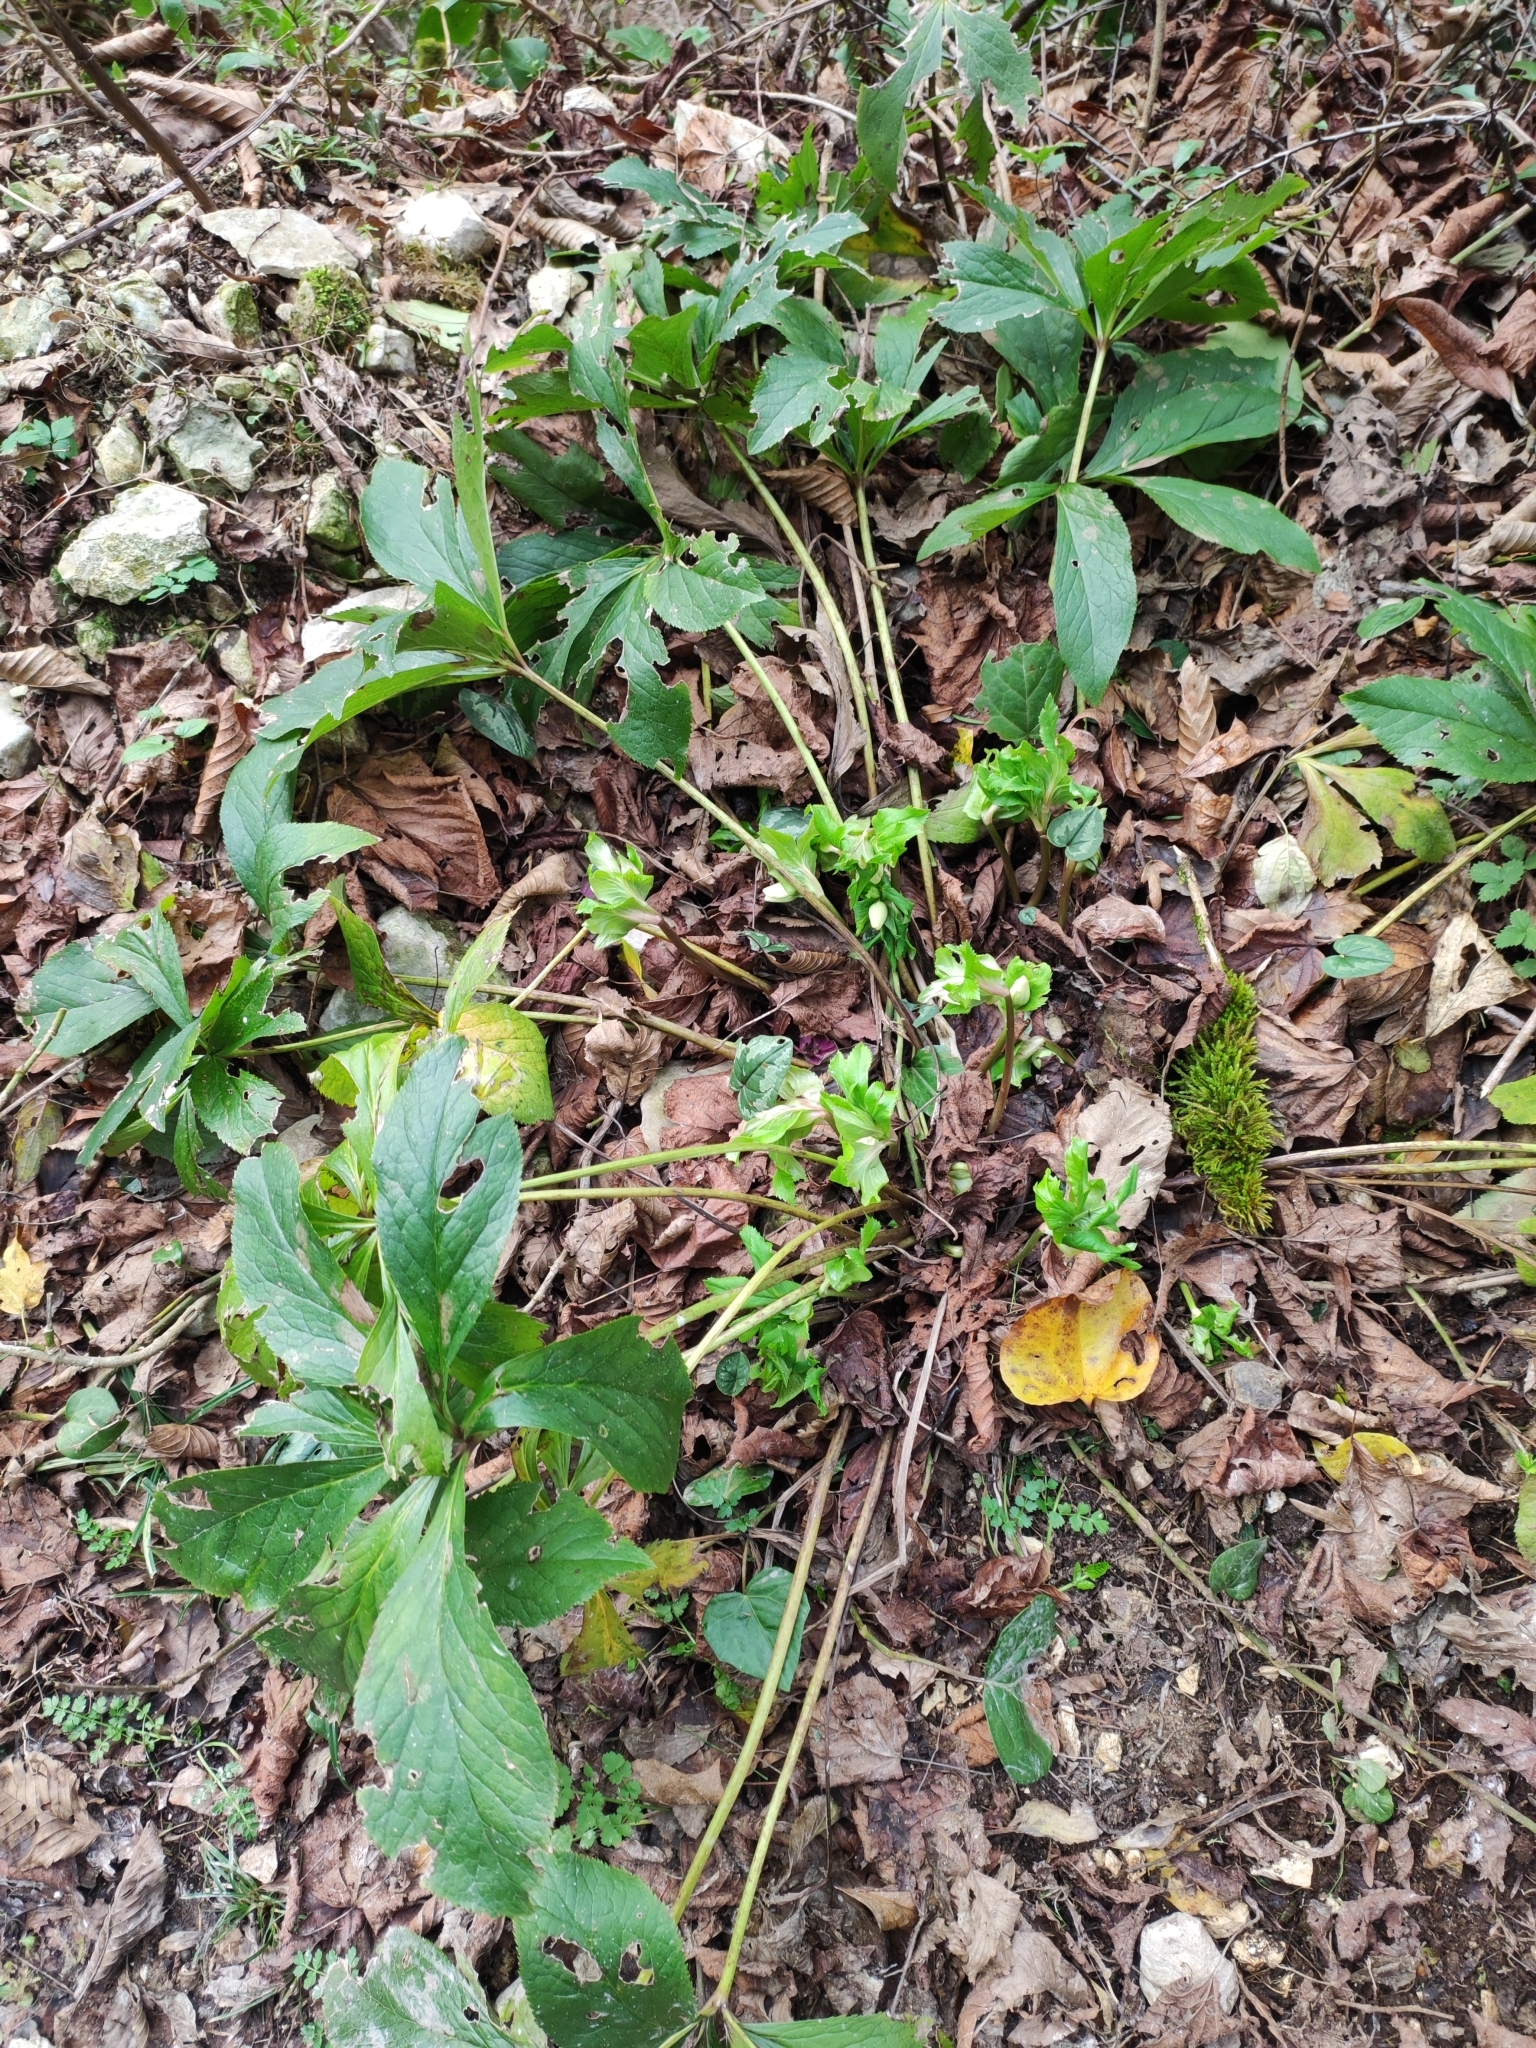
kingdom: Plantae
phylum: Tracheophyta
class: Magnoliopsida
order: Ranunculales
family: Ranunculaceae
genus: Helleborus
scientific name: Helleborus orientalis
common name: Lenten-rose
